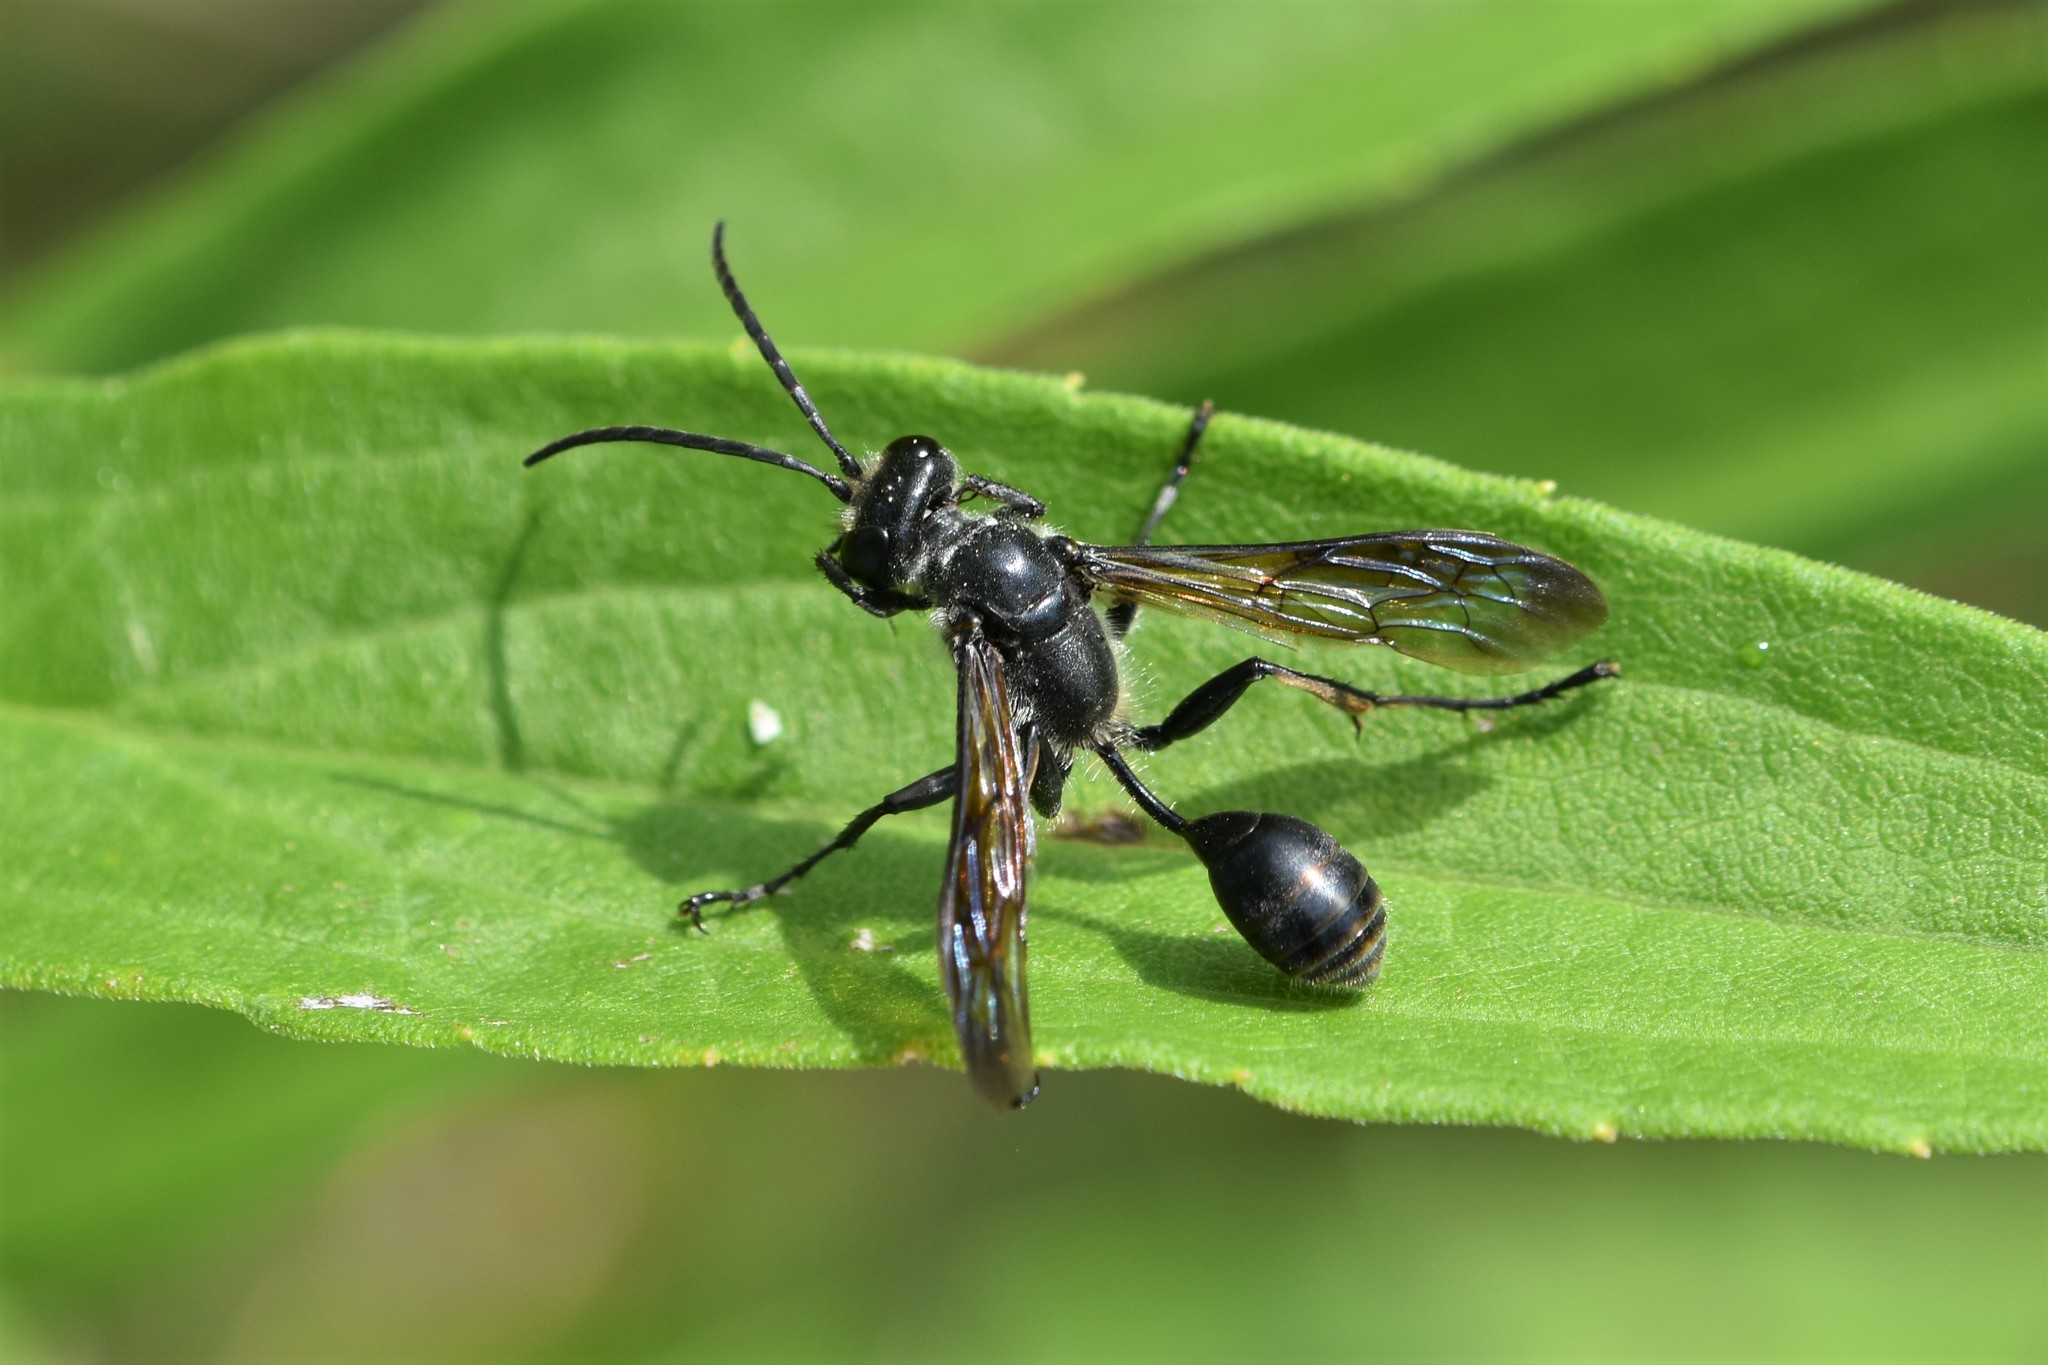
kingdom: Animalia
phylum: Arthropoda
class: Insecta
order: Hymenoptera
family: Sphecidae
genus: Isodontia
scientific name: Isodontia mexicana
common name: Mud dauber
